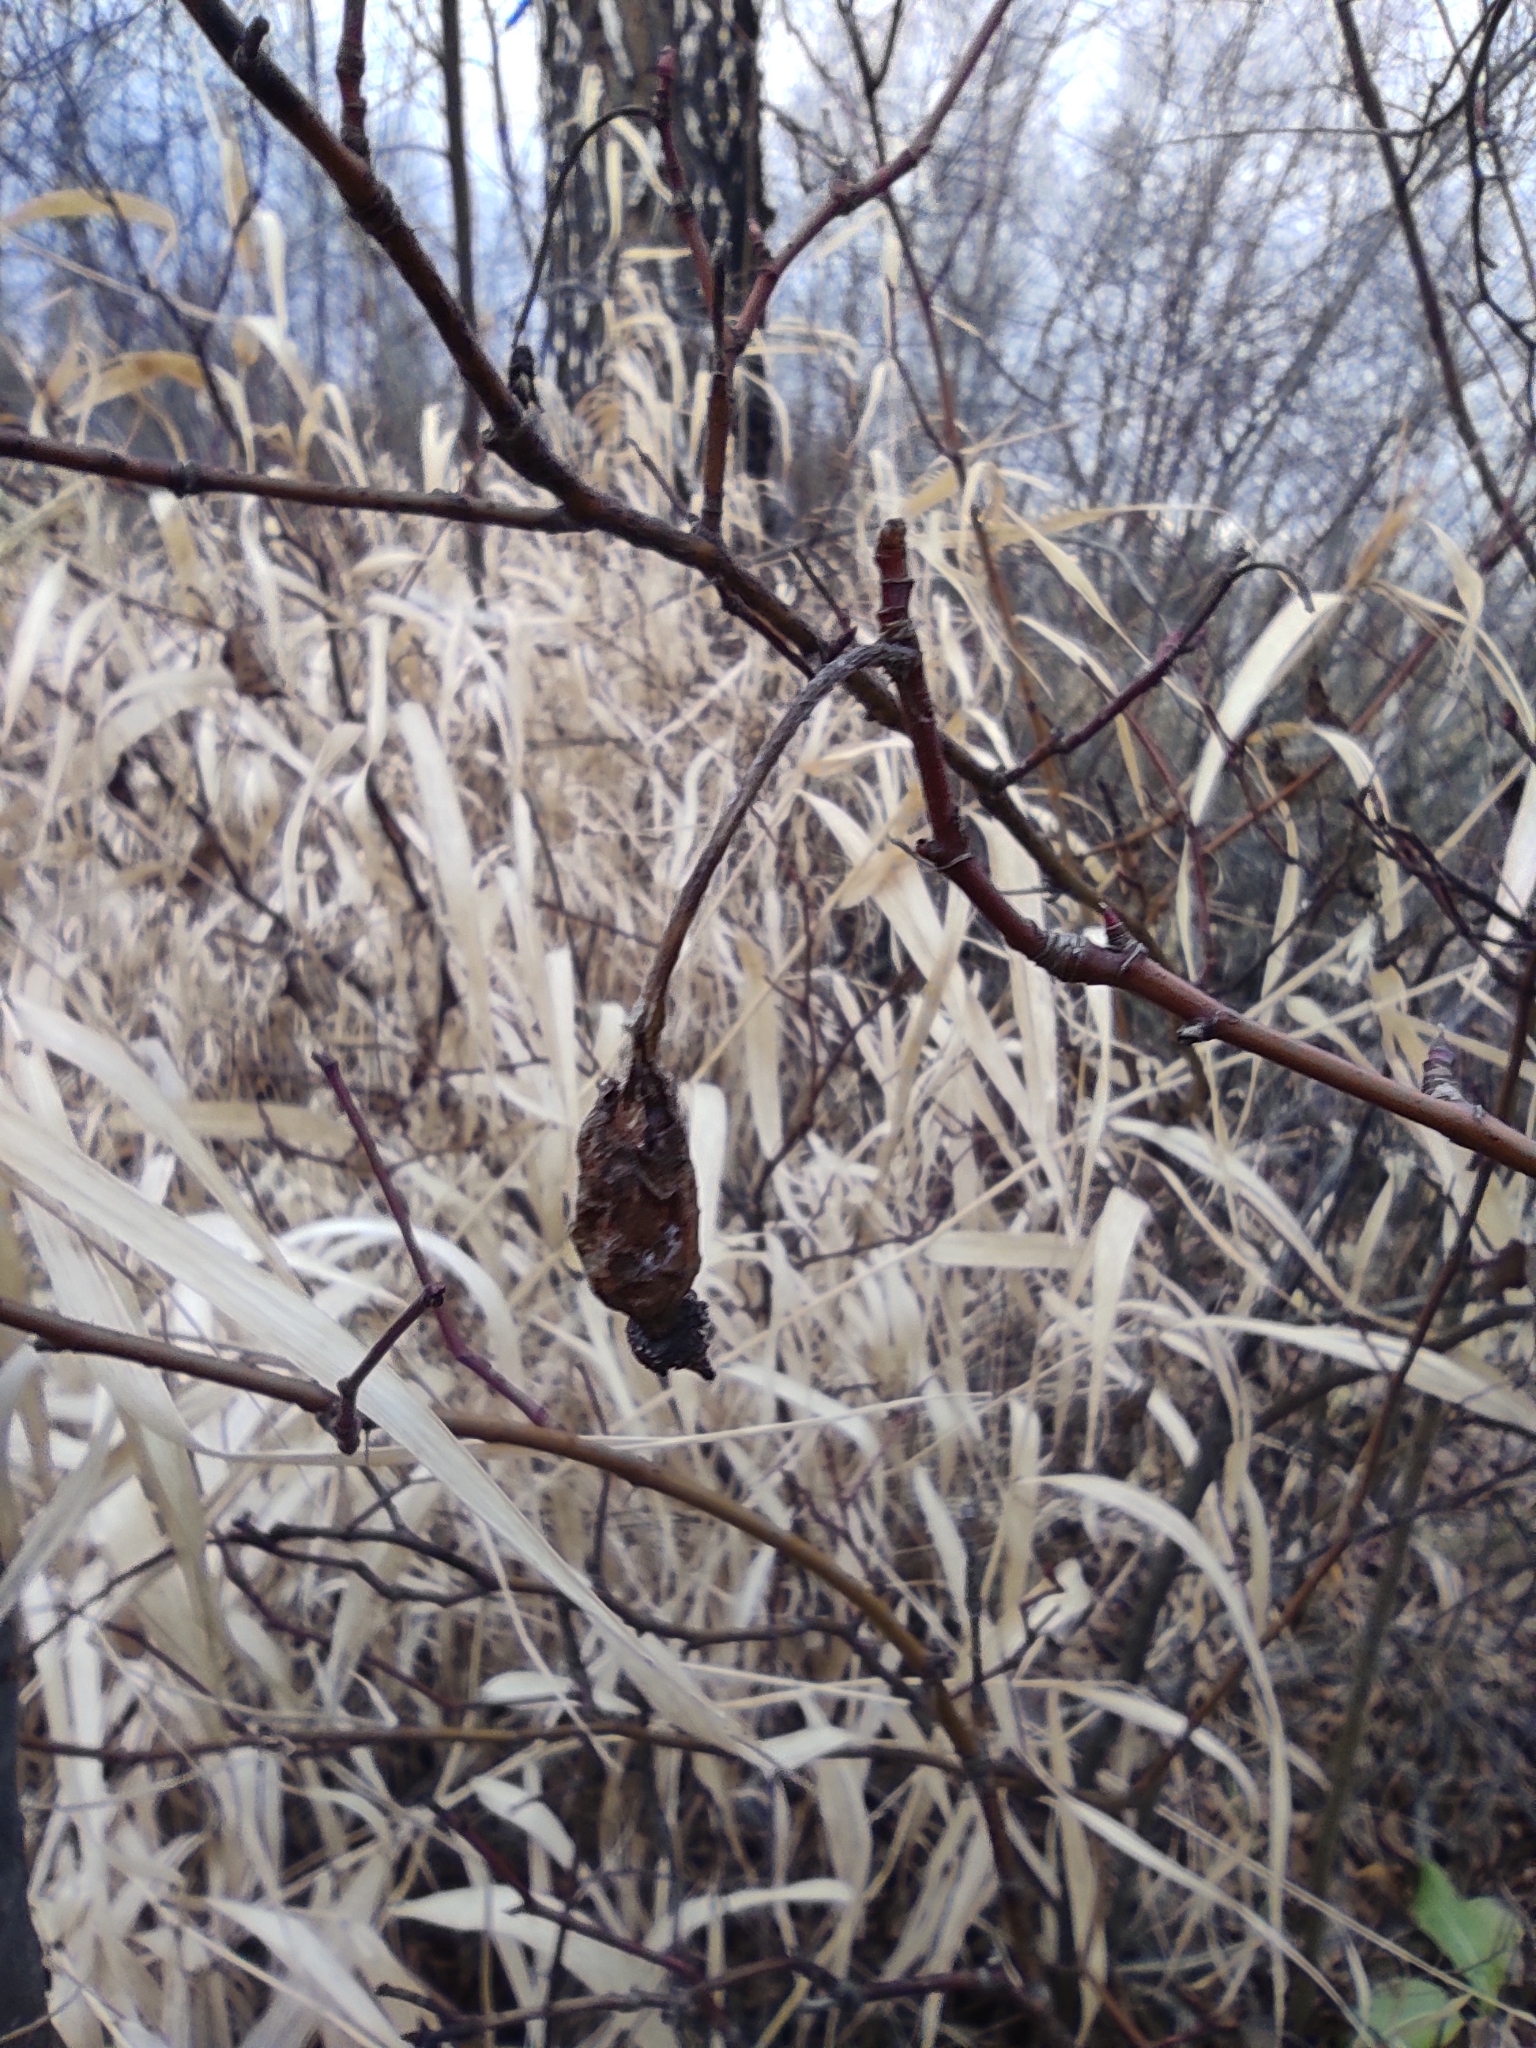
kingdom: Animalia
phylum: Chordata
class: Aves
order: Passeriformes
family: Remizidae
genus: Remiz
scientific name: Remiz pendulinus
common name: Eurasian penduline tit
